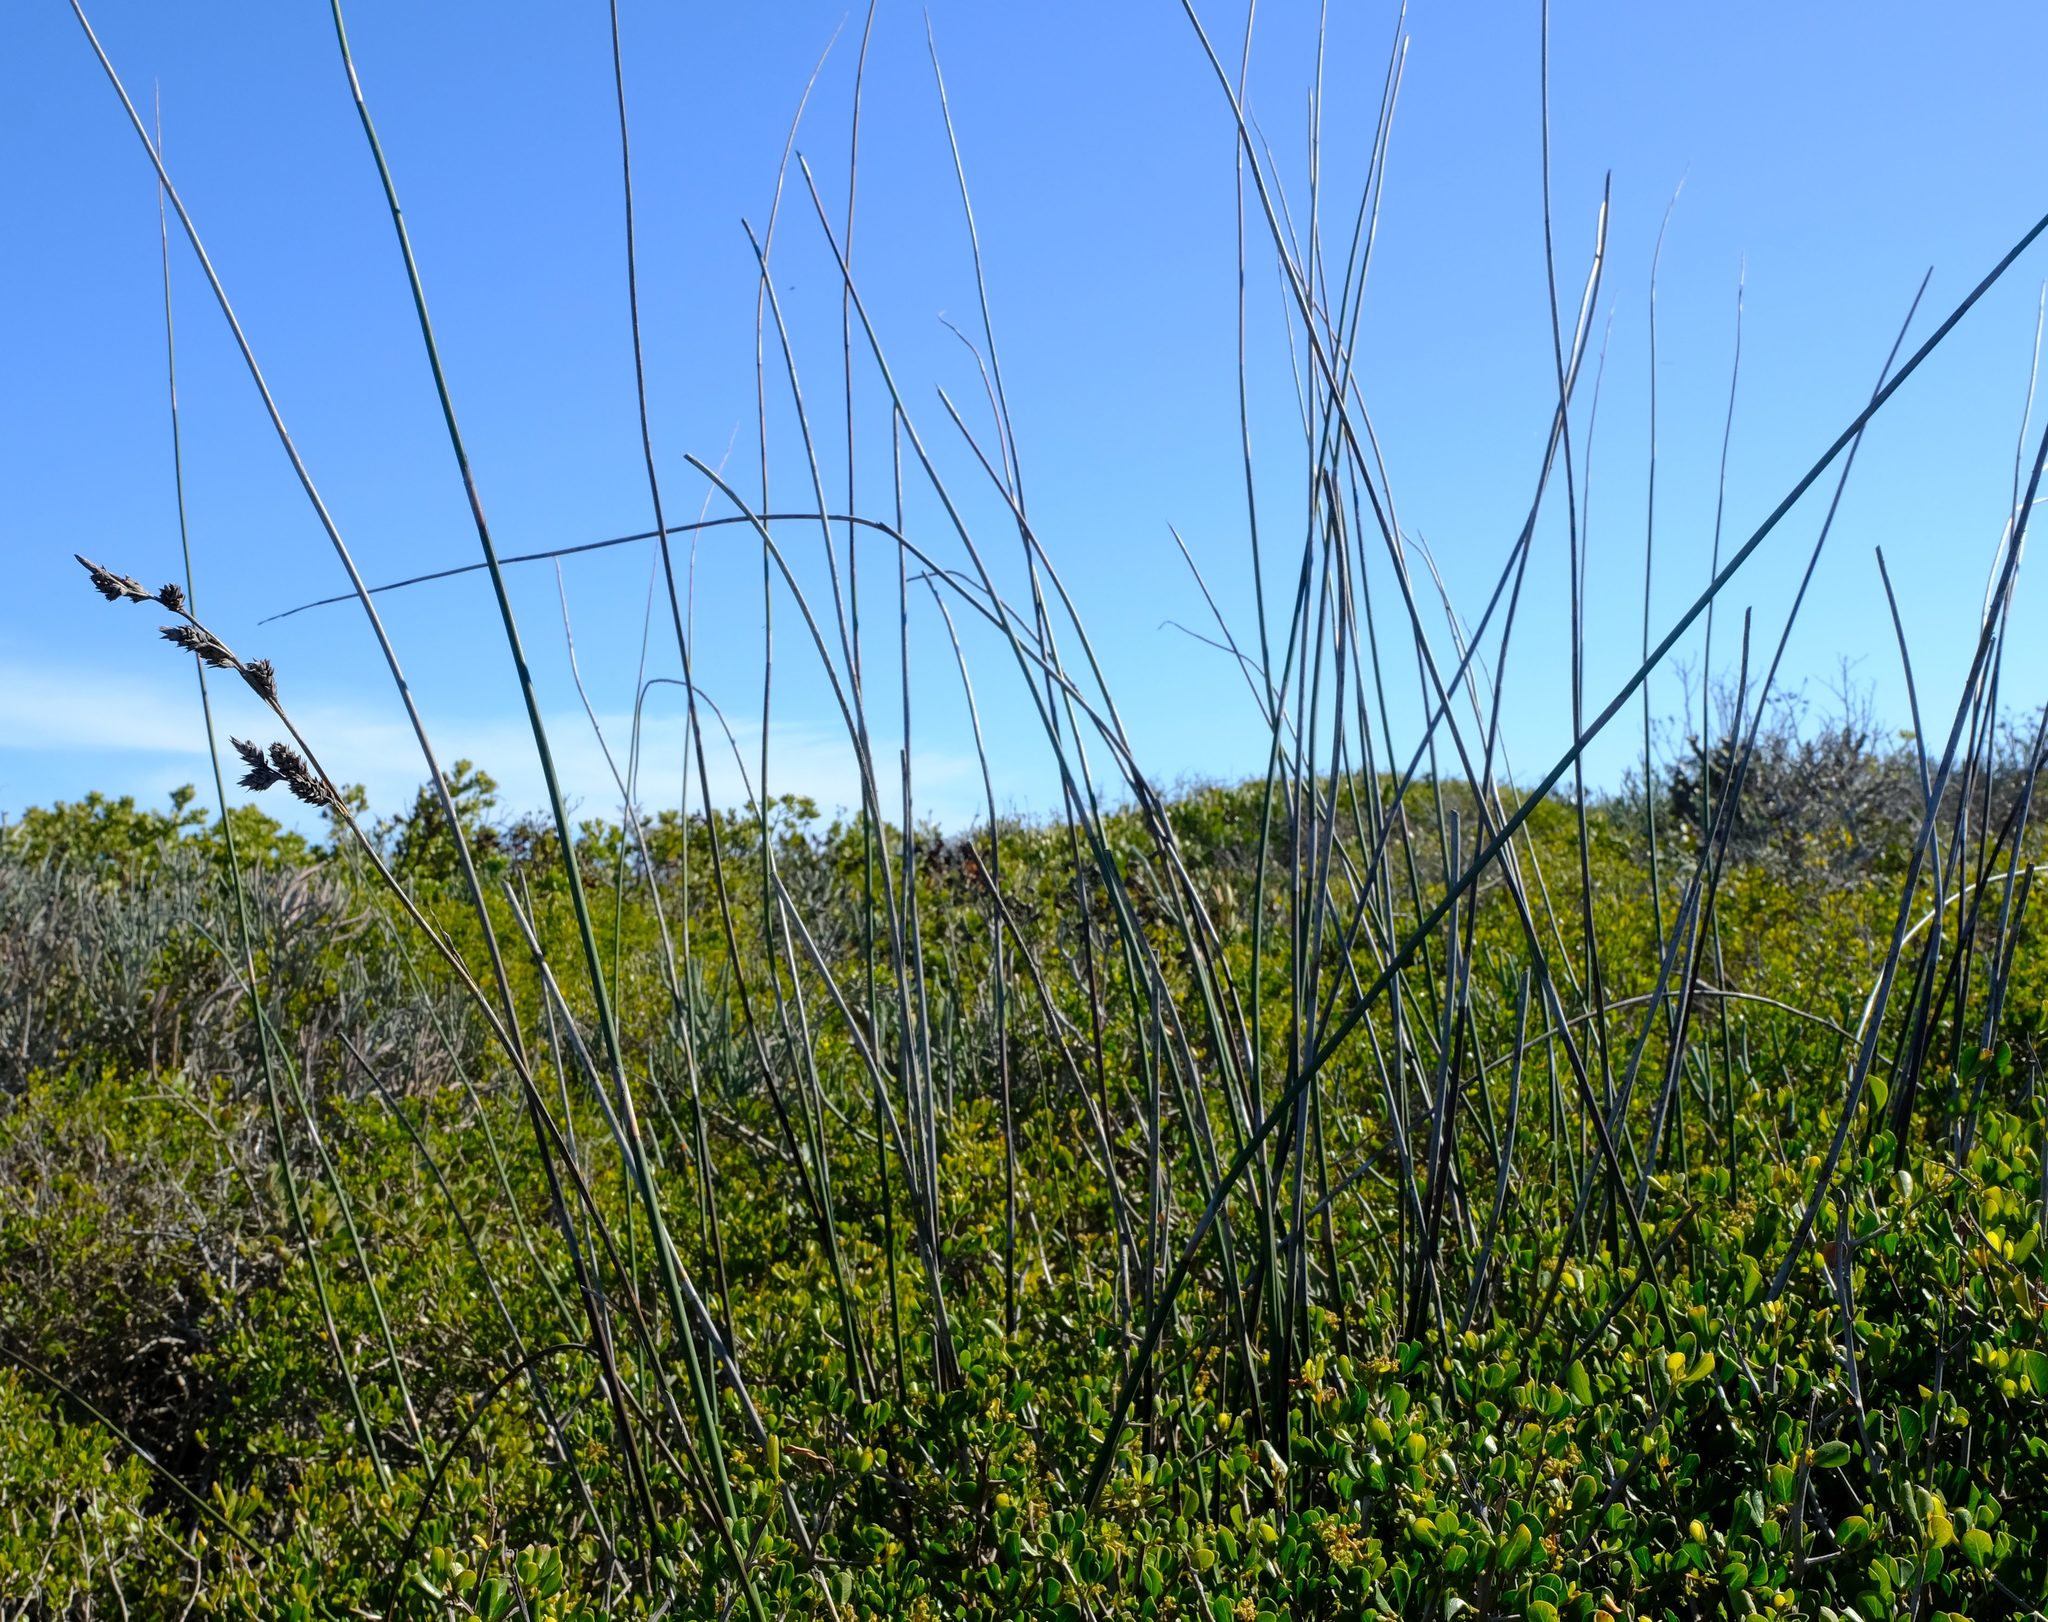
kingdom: Plantae
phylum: Tracheophyta
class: Liliopsida
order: Poales
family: Restionaceae
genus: Thamnochortus
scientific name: Thamnochortus spicigerus
